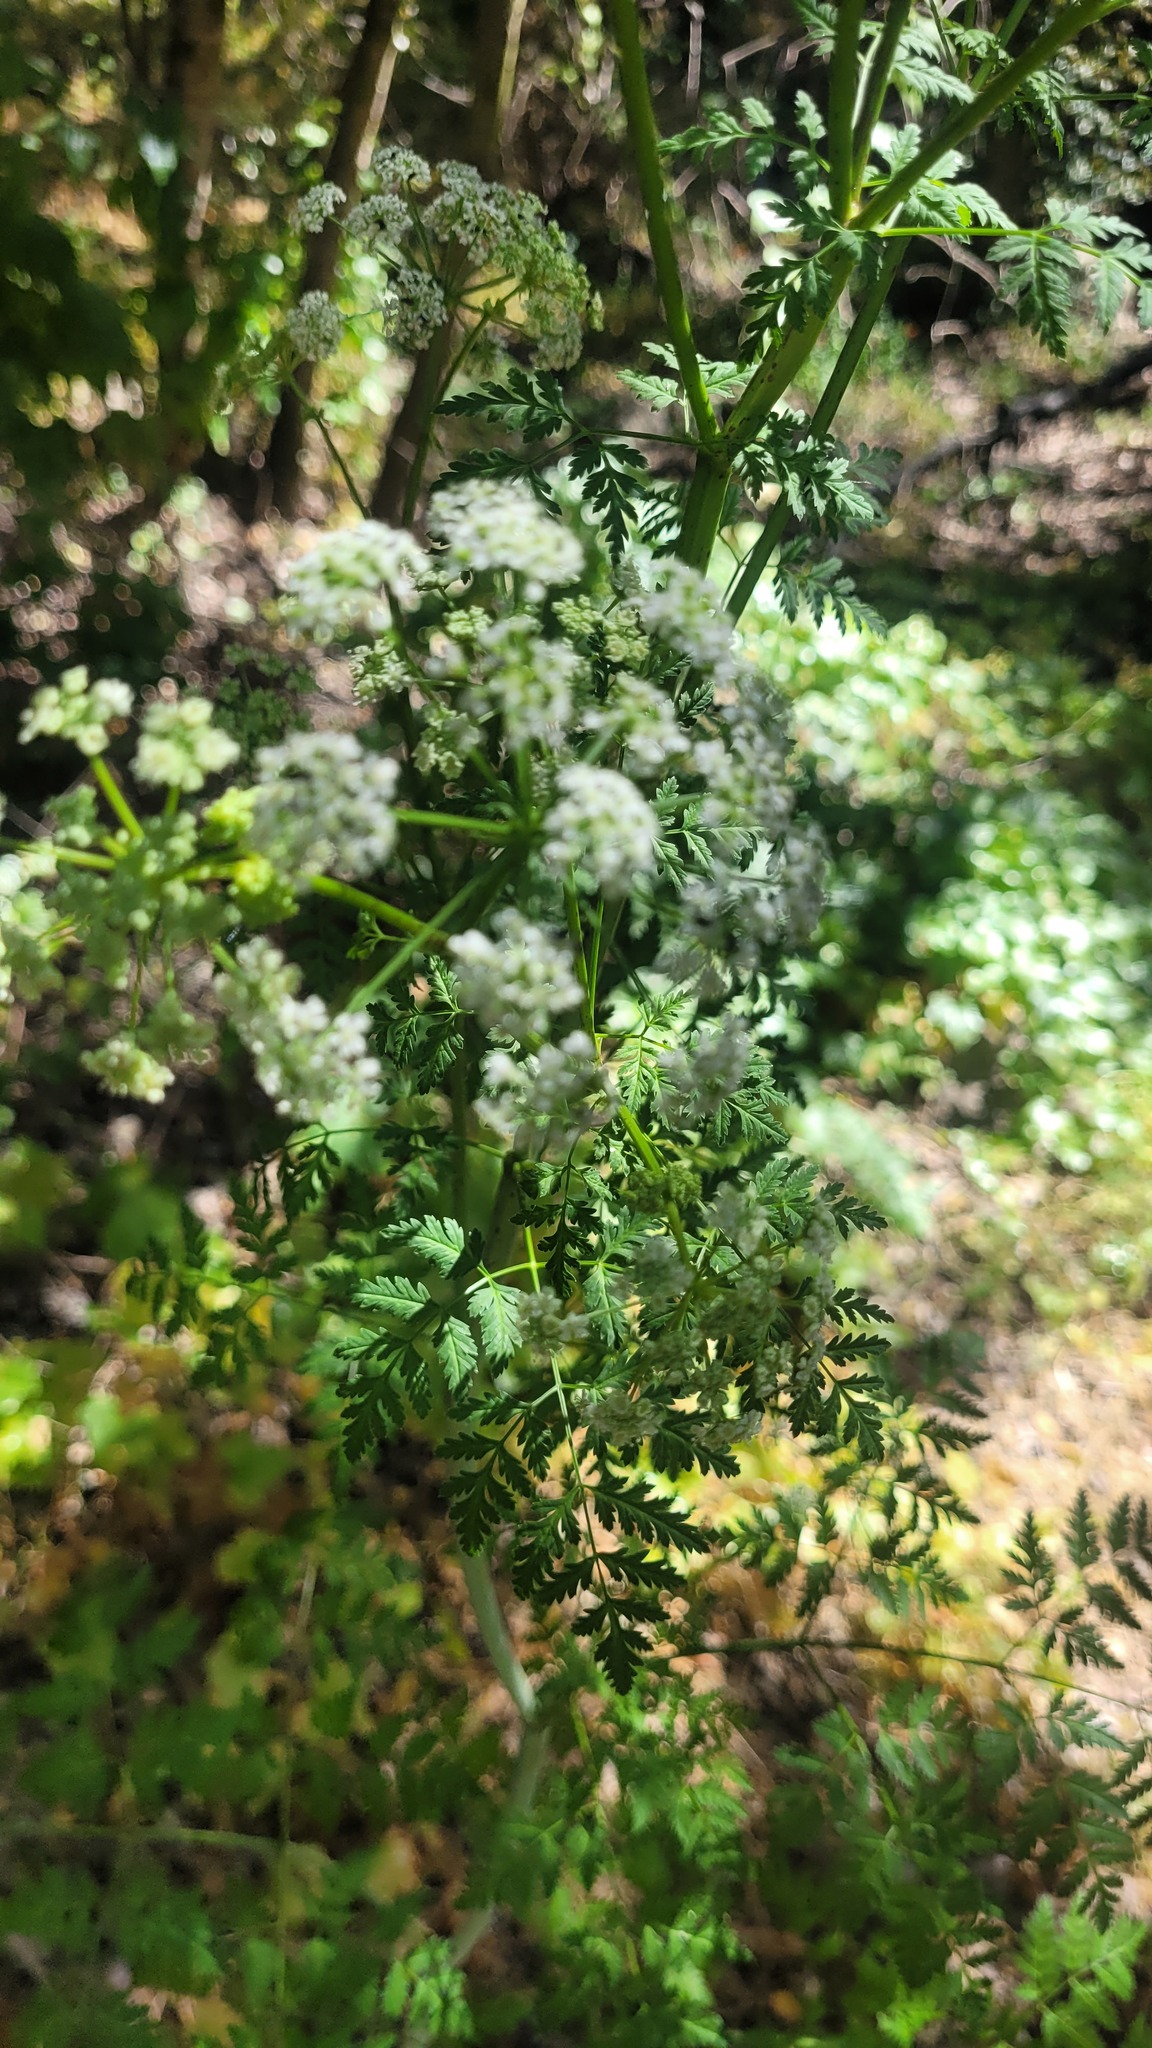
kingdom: Plantae
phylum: Tracheophyta
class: Magnoliopsida
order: Apiales
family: Apiaceae
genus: Conium
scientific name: Conium maculatum
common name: Hemlock
